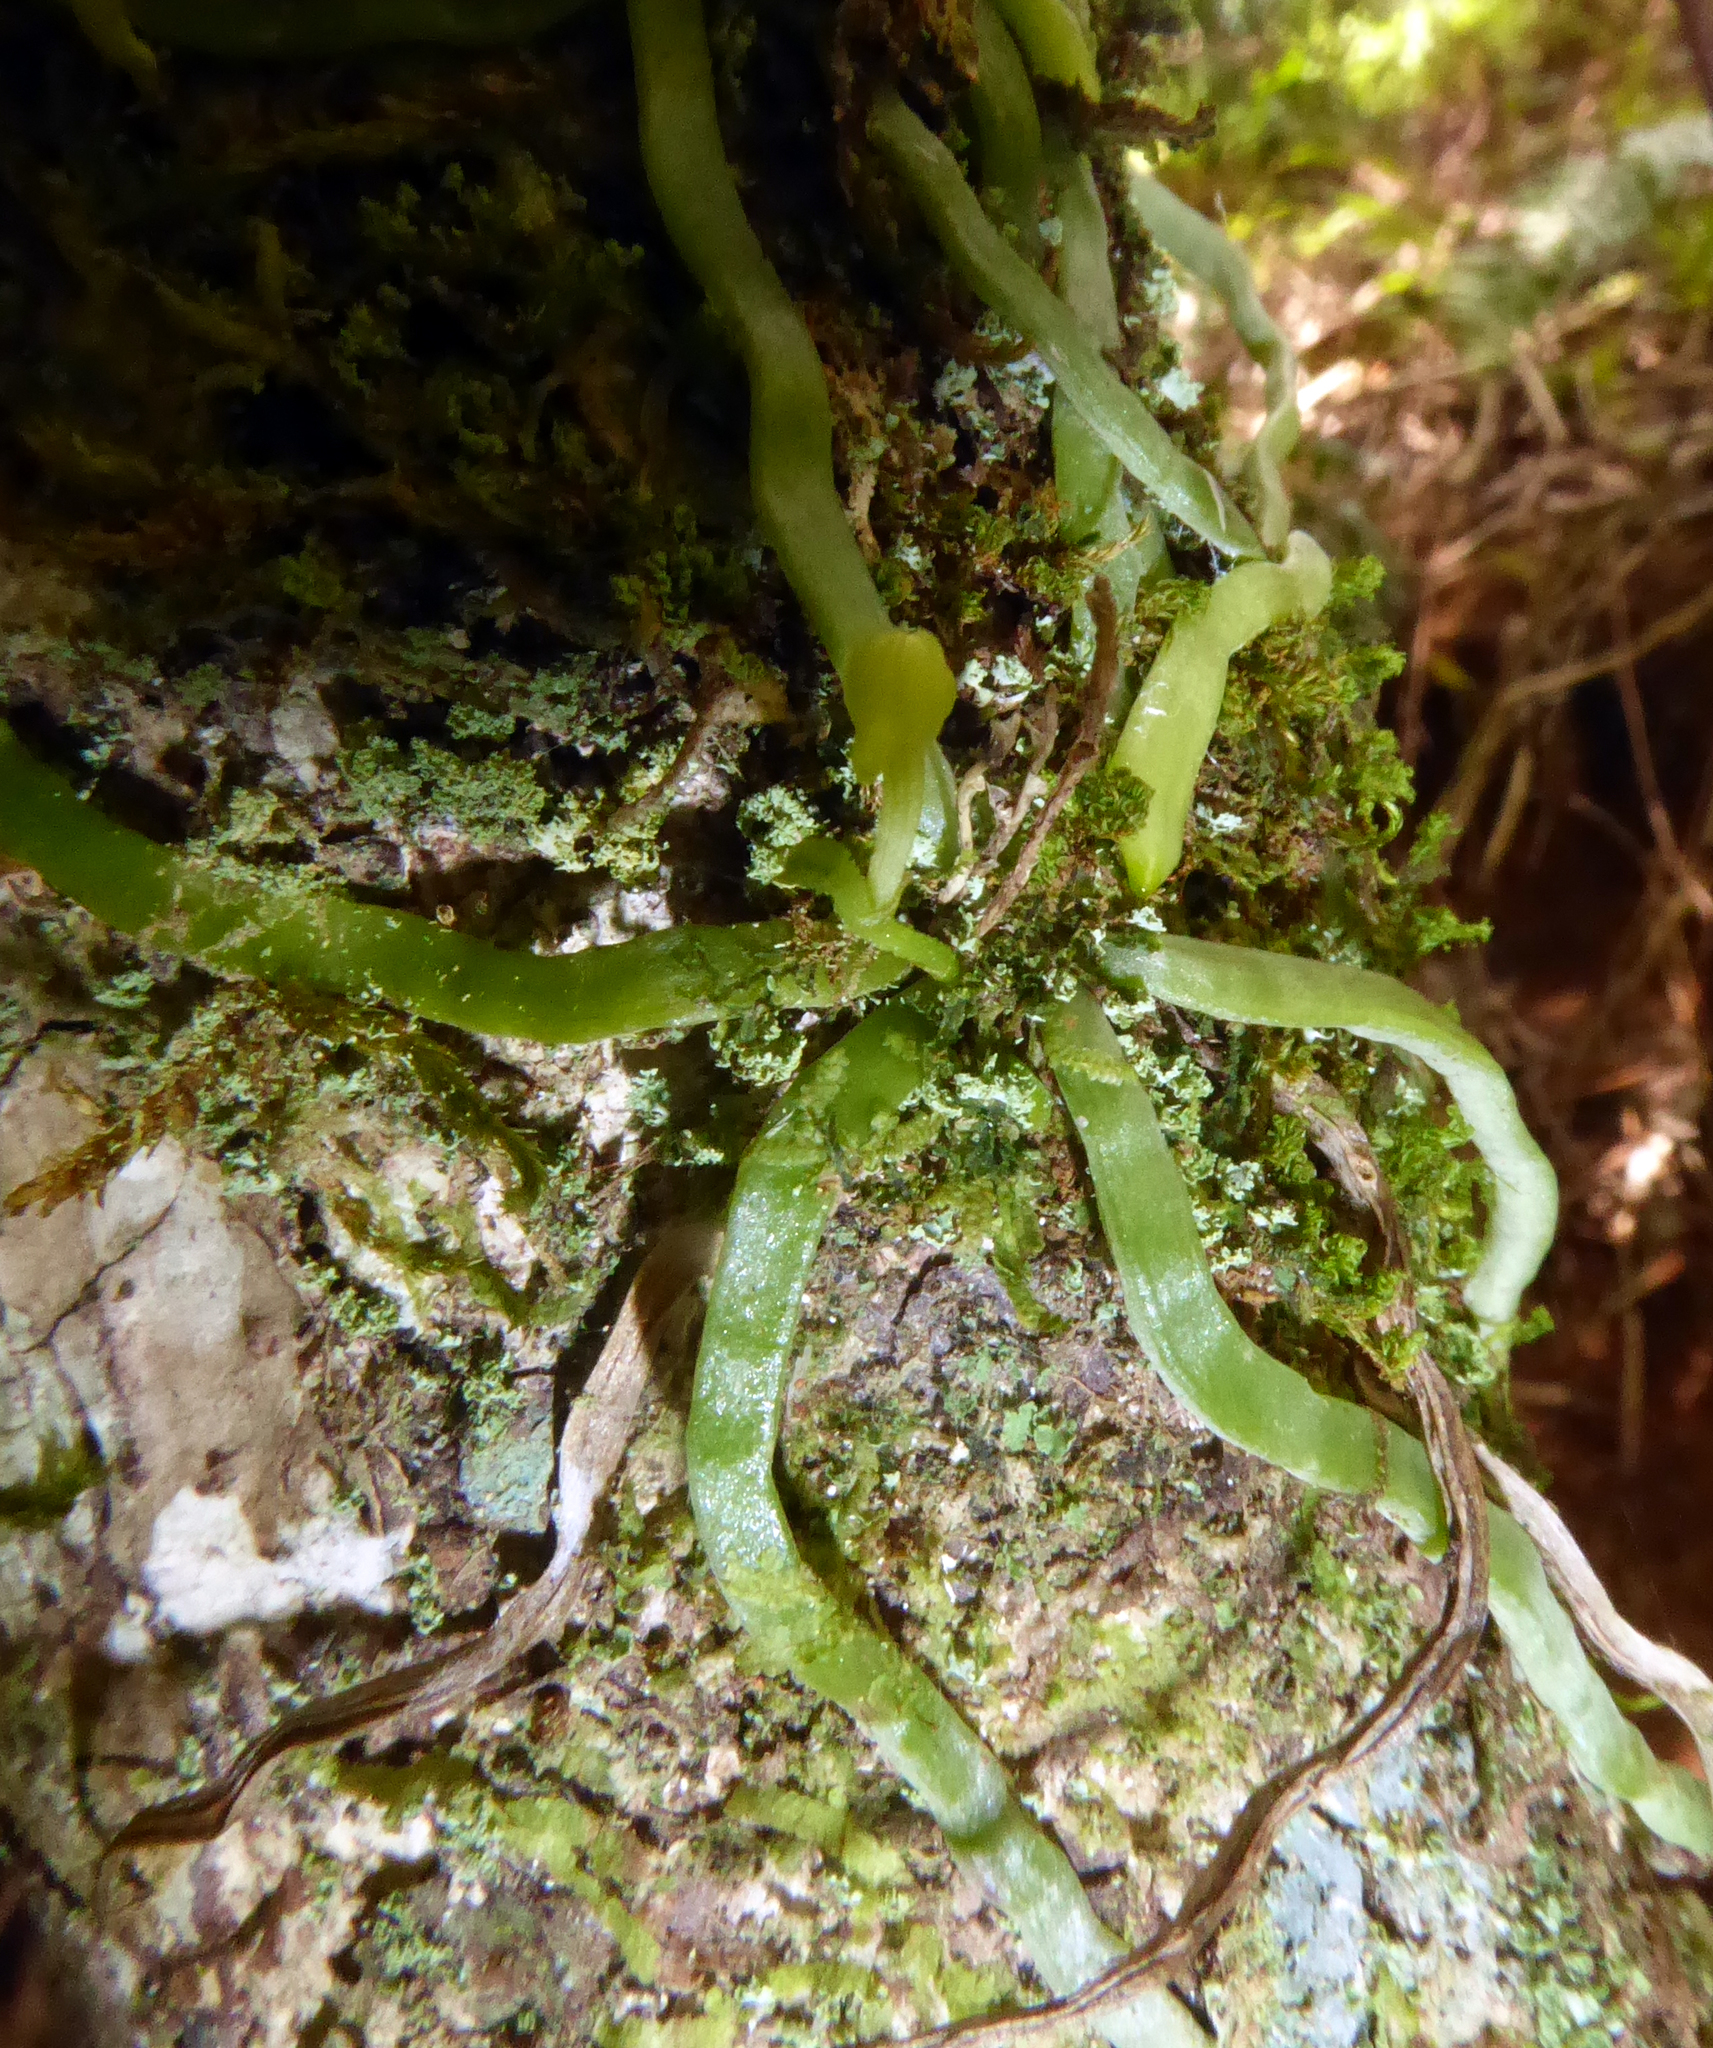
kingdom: Plantae
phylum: Tracheophyta
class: Liliopsida
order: Asparagales
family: Orchidaceae
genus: Taeniophyllum
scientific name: Taeniophyllum fasciola
